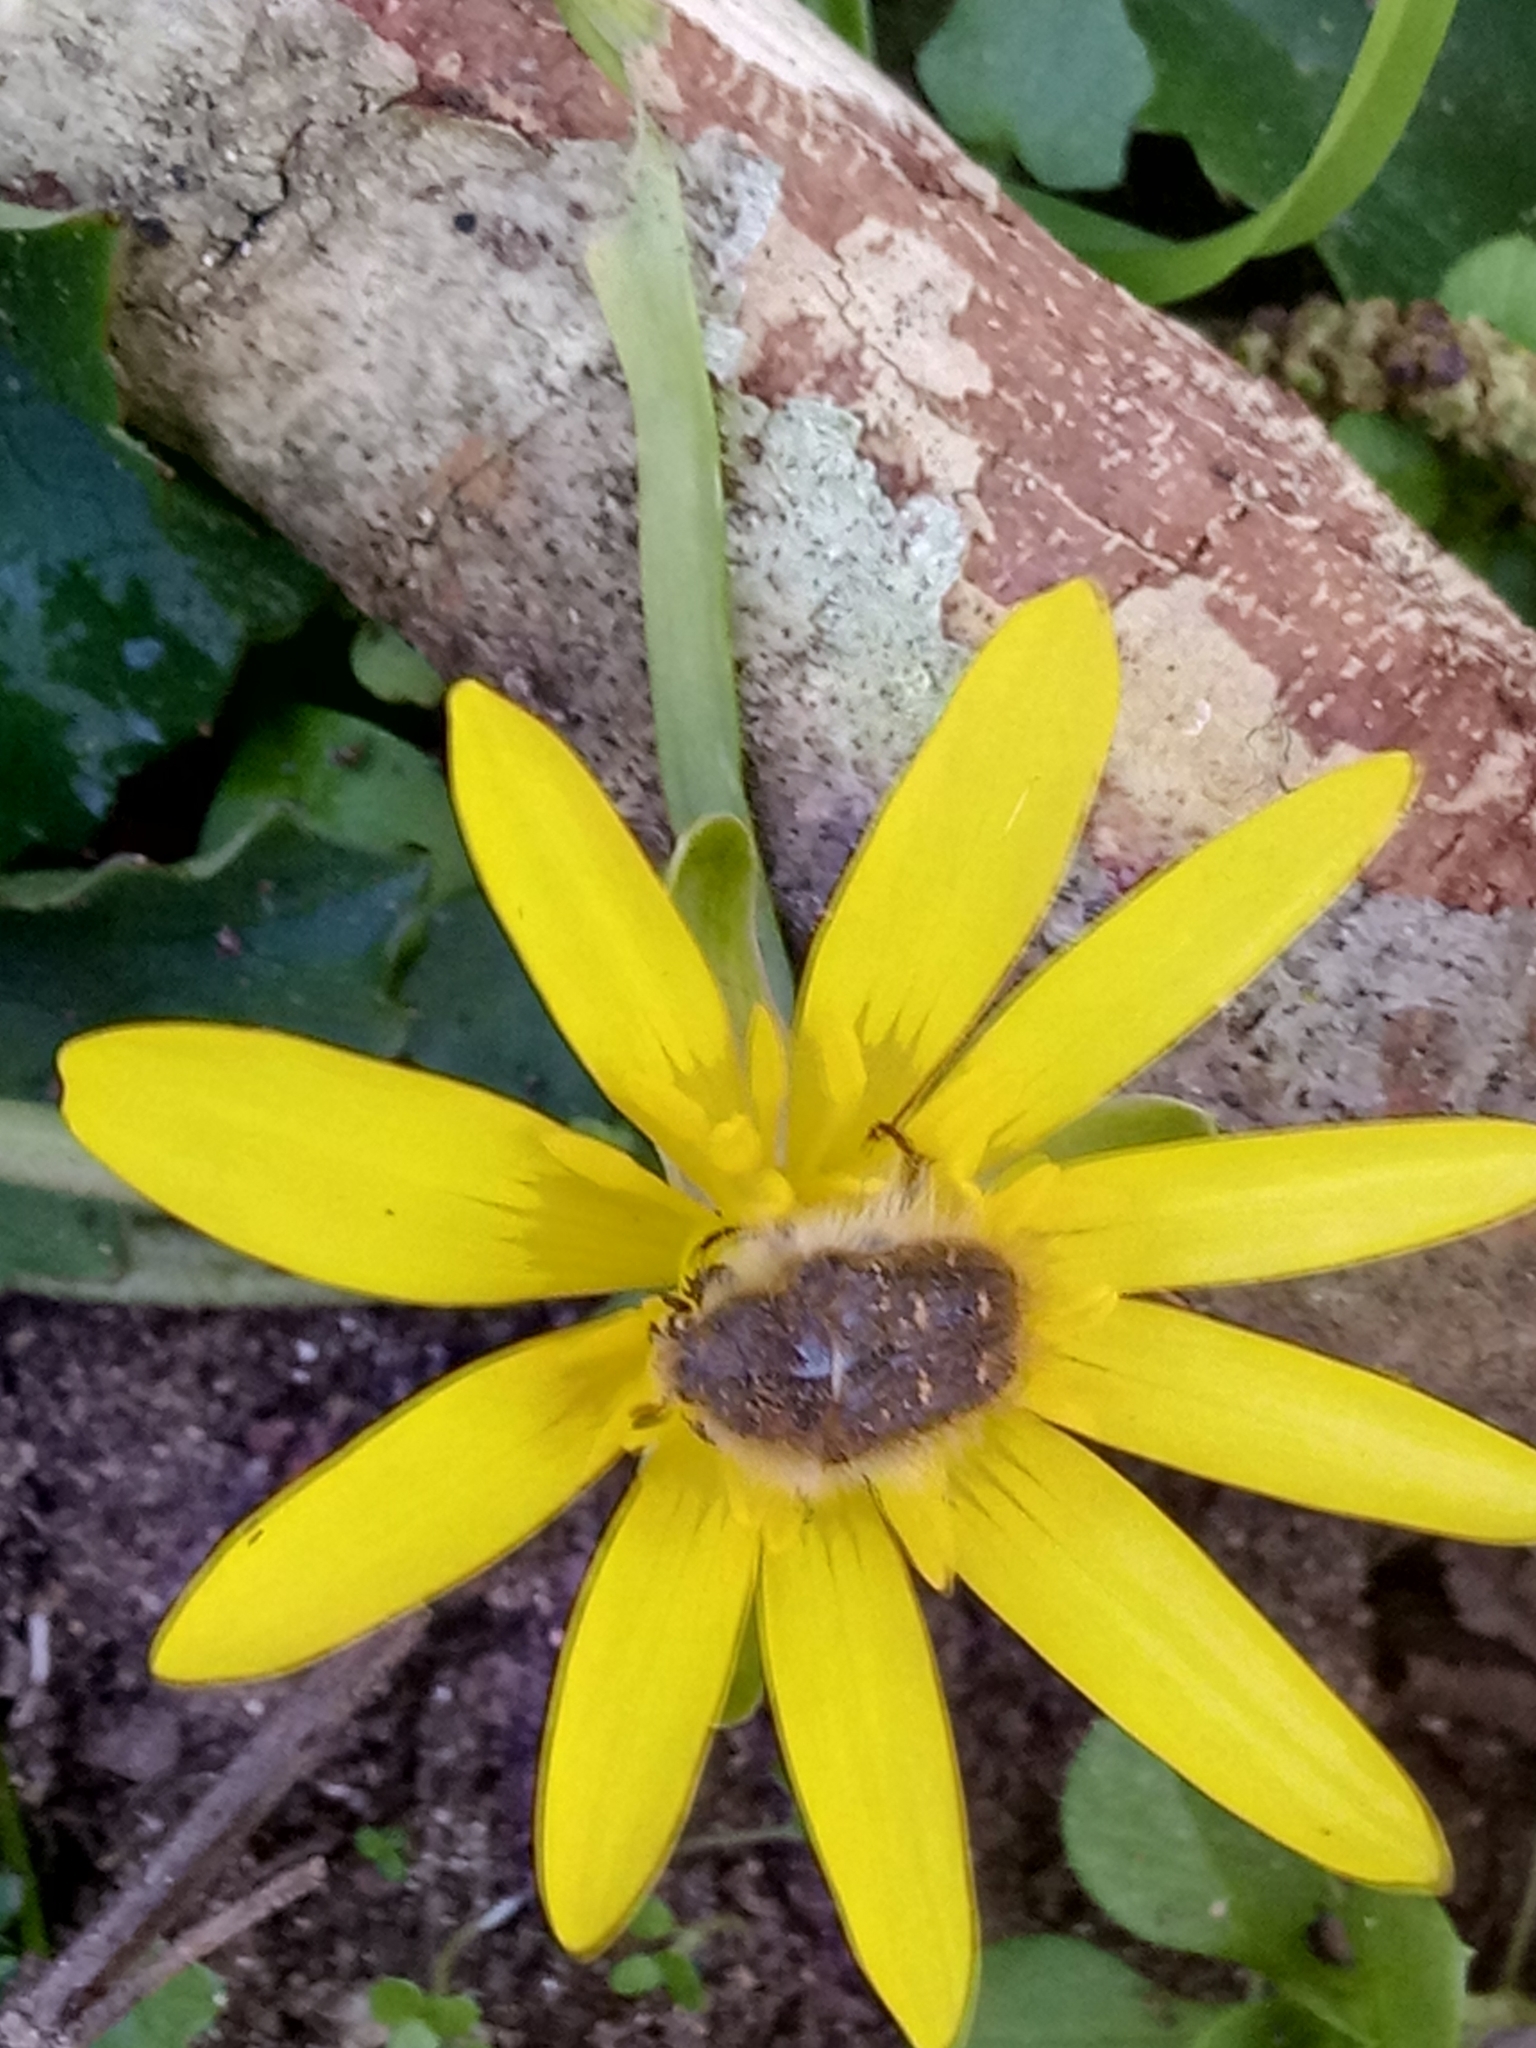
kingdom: Animalia
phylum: Arthropoda
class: Insecta
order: Coleoptera
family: Scarabaeidae
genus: Tropinota
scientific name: Tropinota squalida
